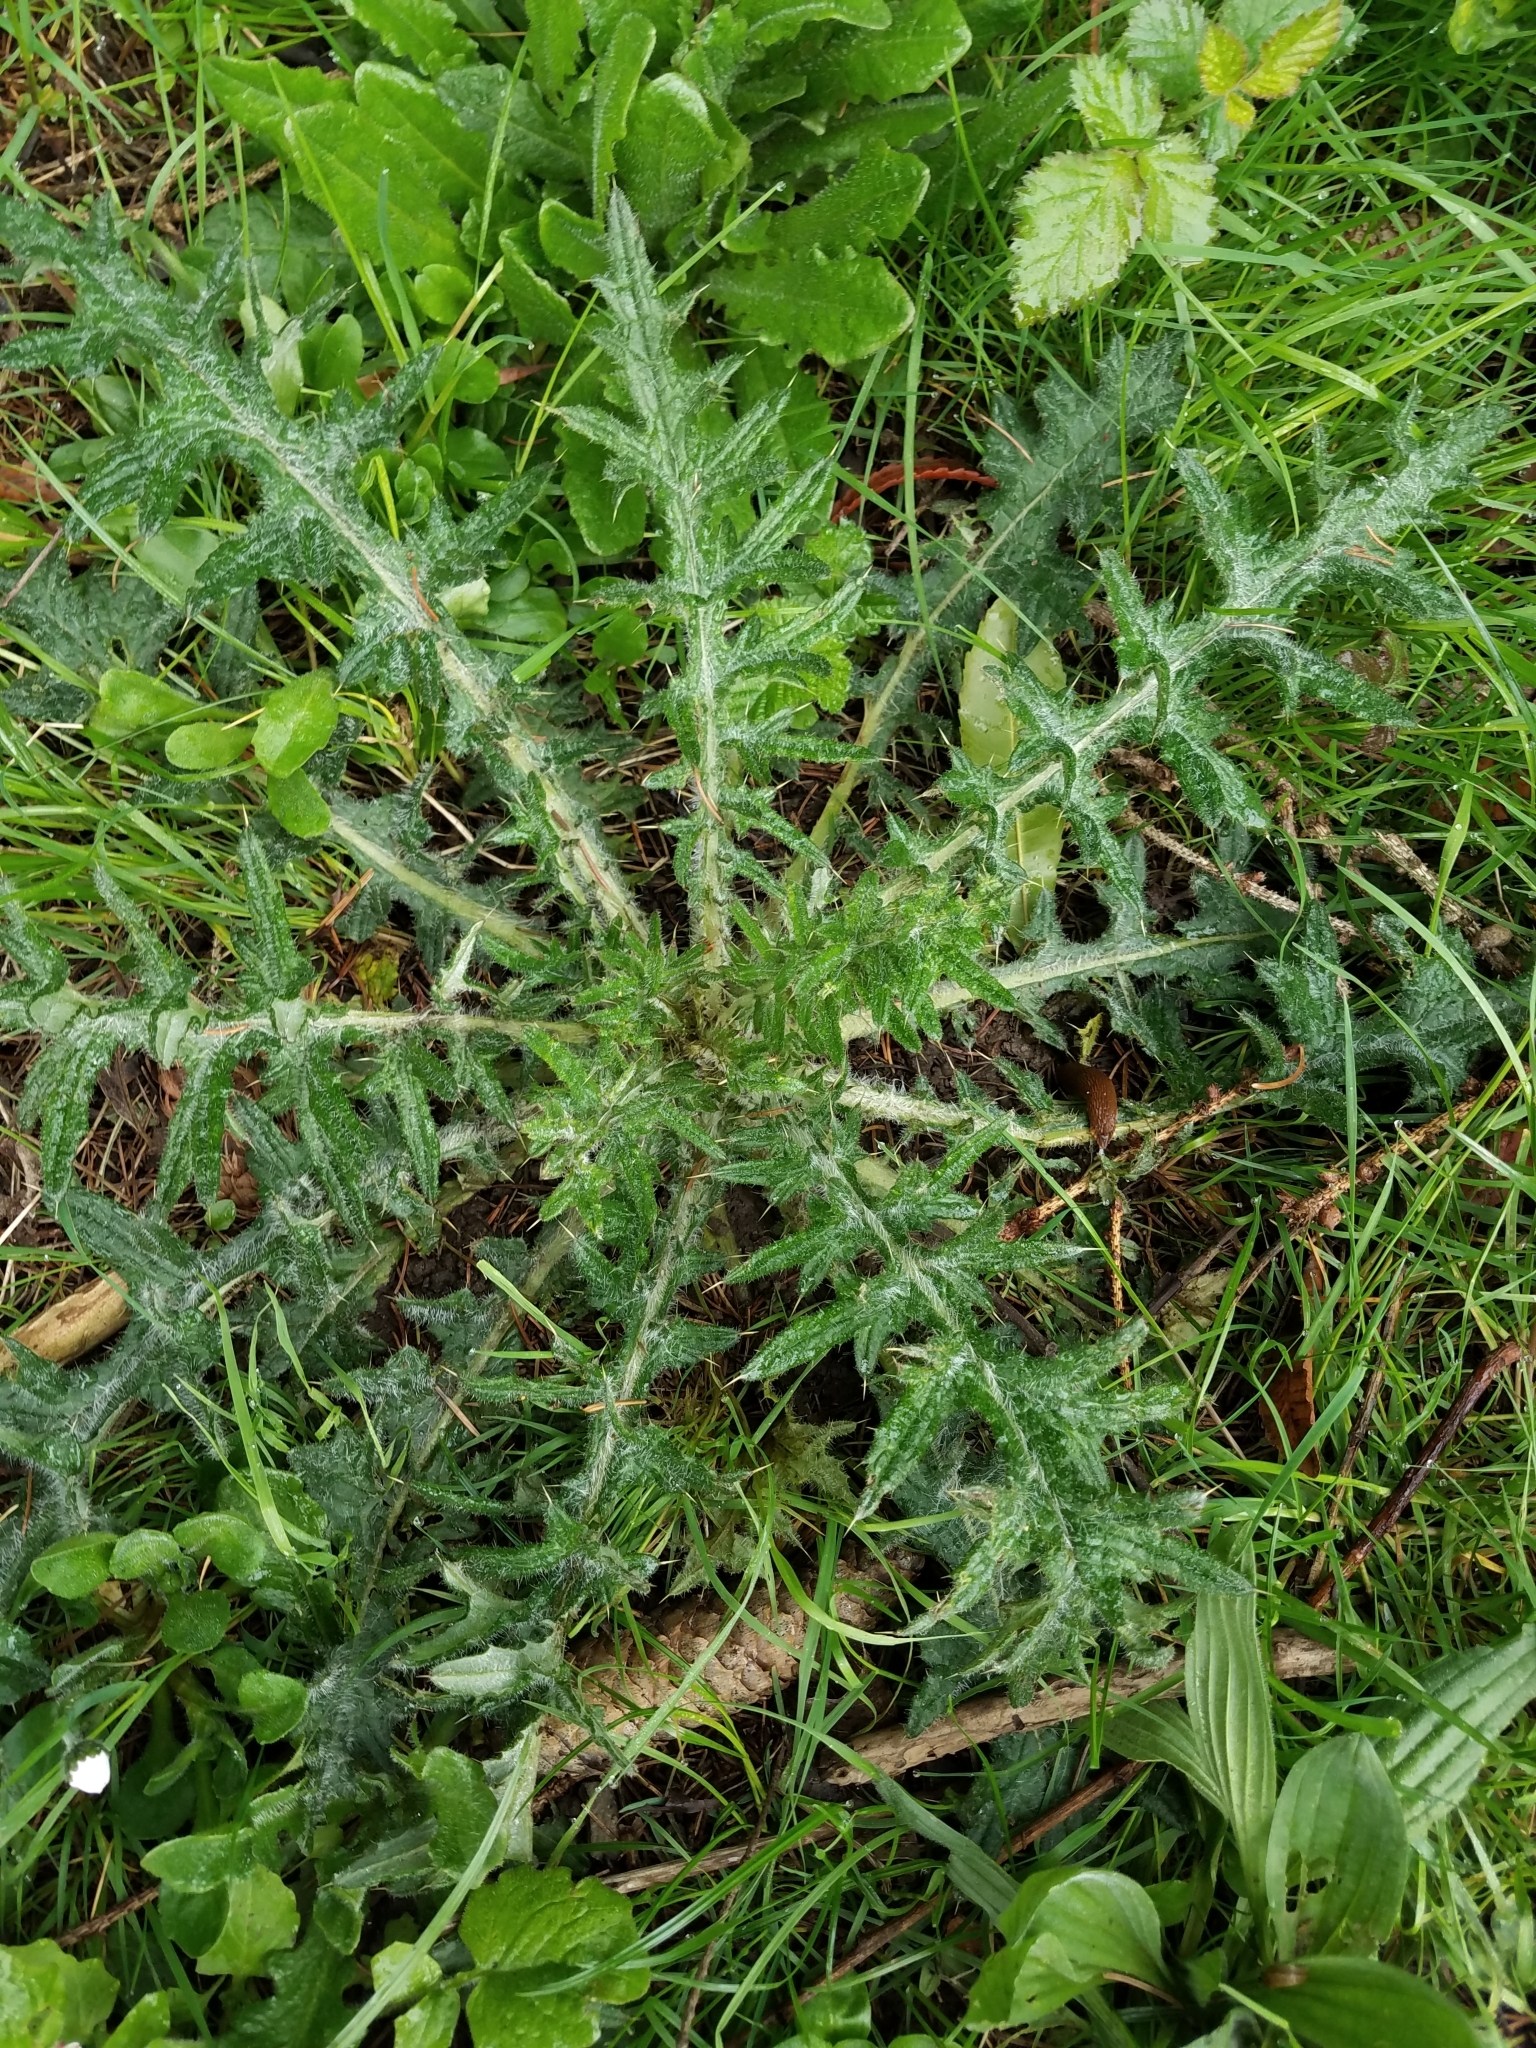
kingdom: Plantae
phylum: Tracheophyta
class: Magnoliopsida
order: Asterales
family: Asteraceae
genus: Cirsium
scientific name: Cirsium vulgare
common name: Bull thistle
